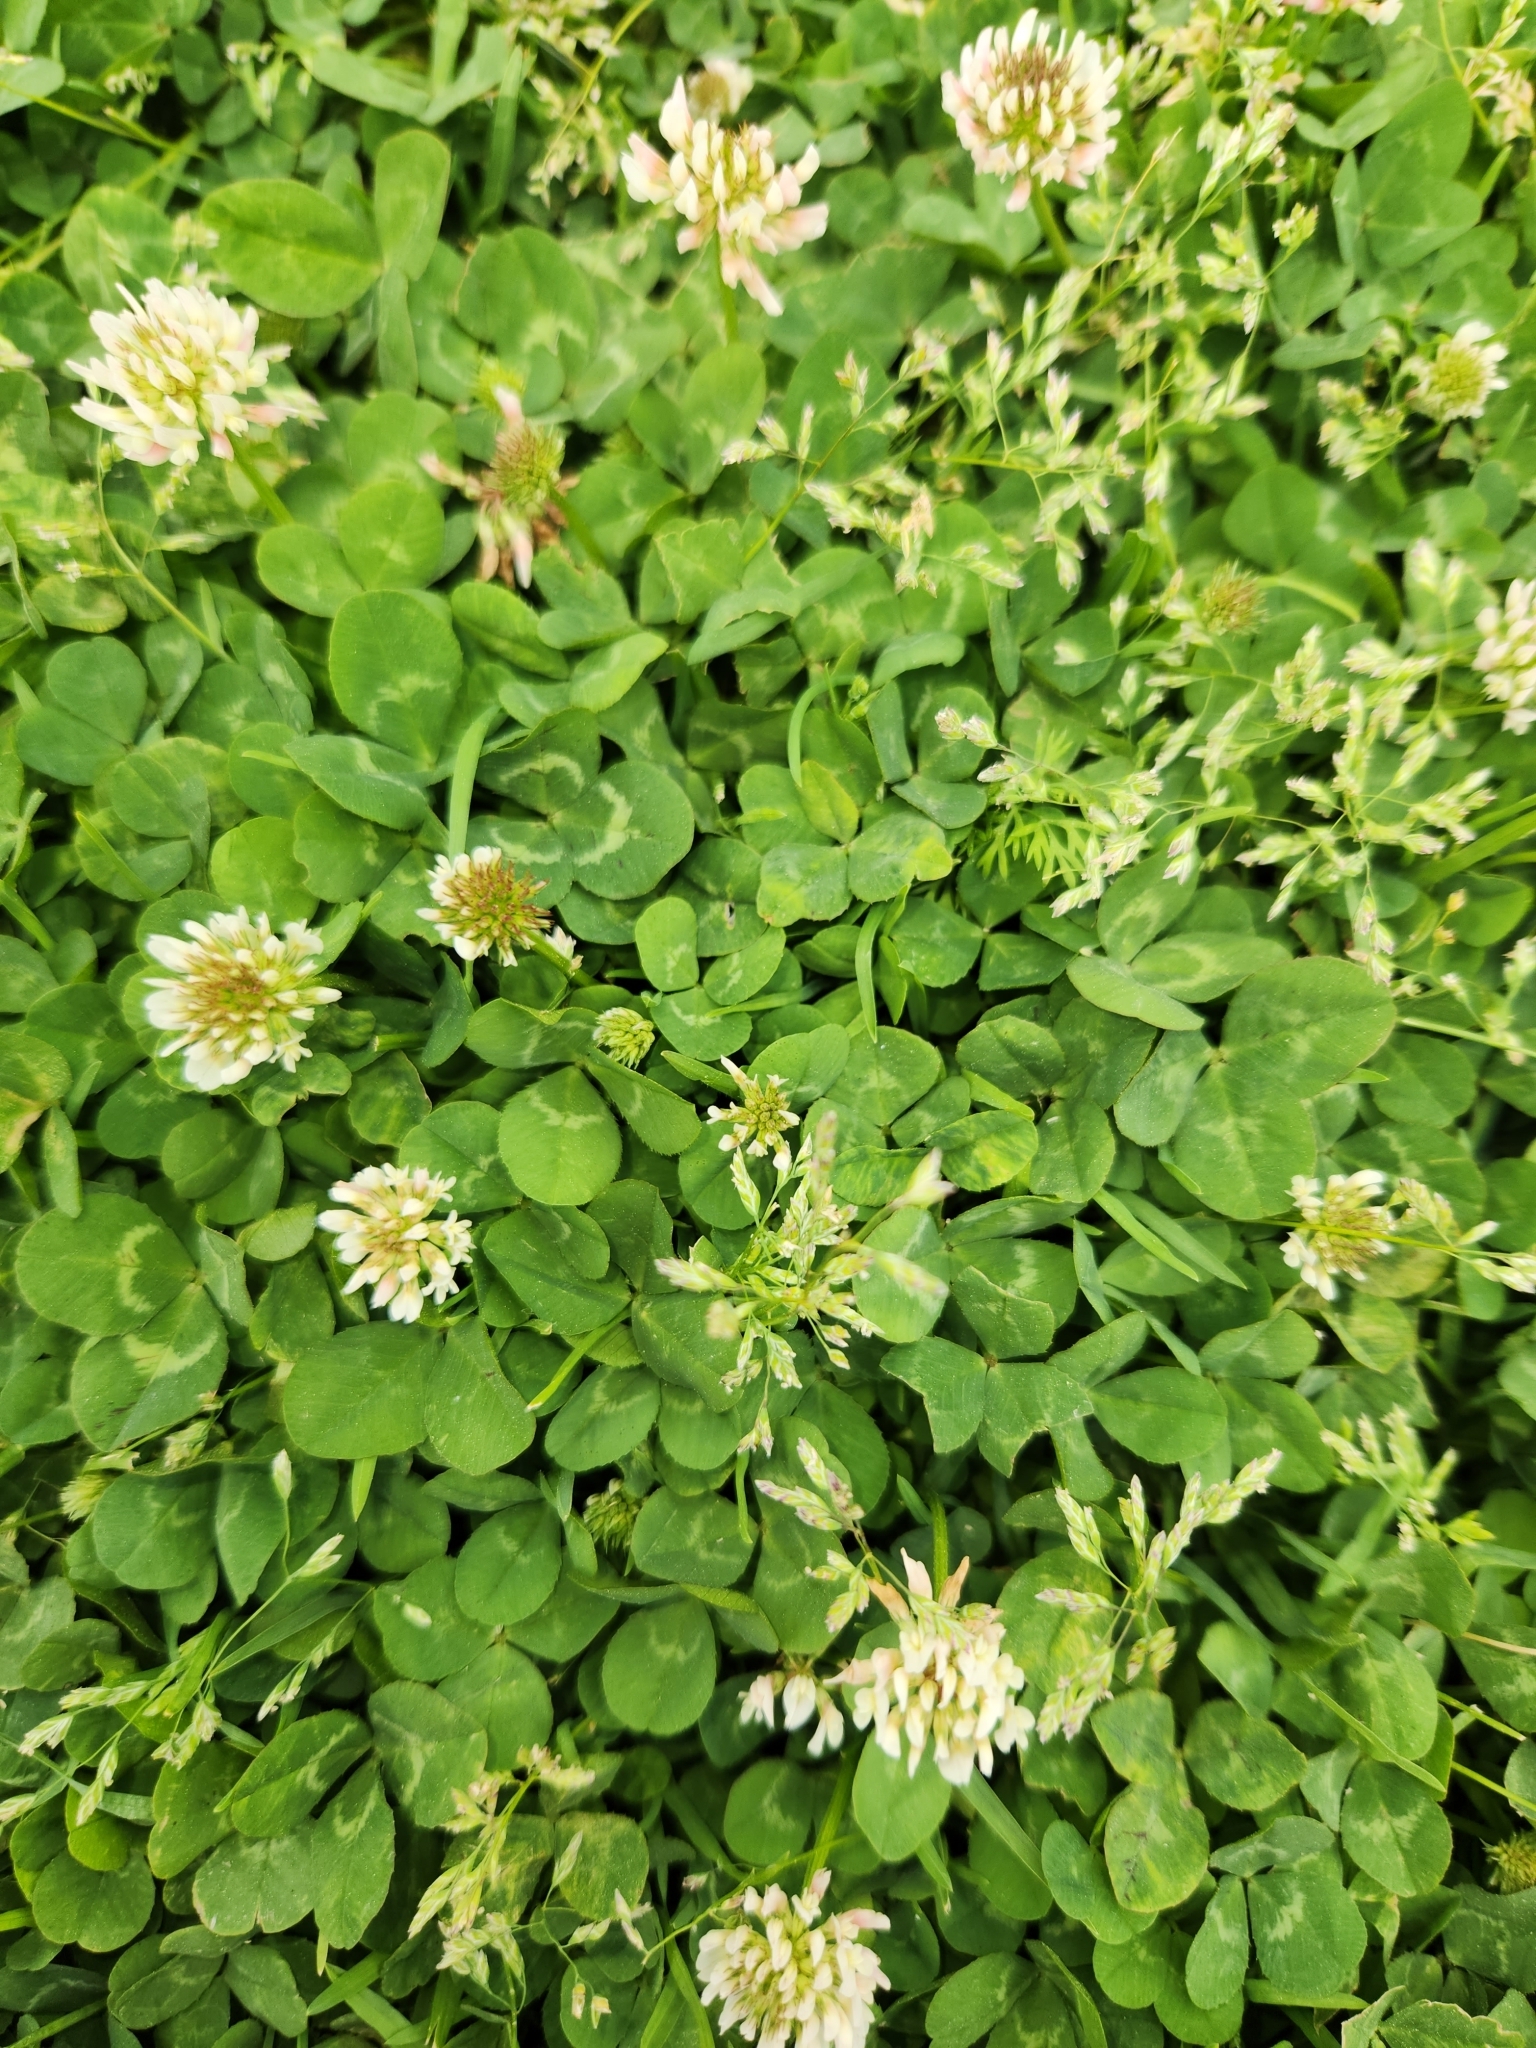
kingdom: Plantae
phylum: Tracheophyta
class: Magnoliopsida
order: Fabales
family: Fabaceae
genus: Trifolium
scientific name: Trifolium repens
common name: White clover
